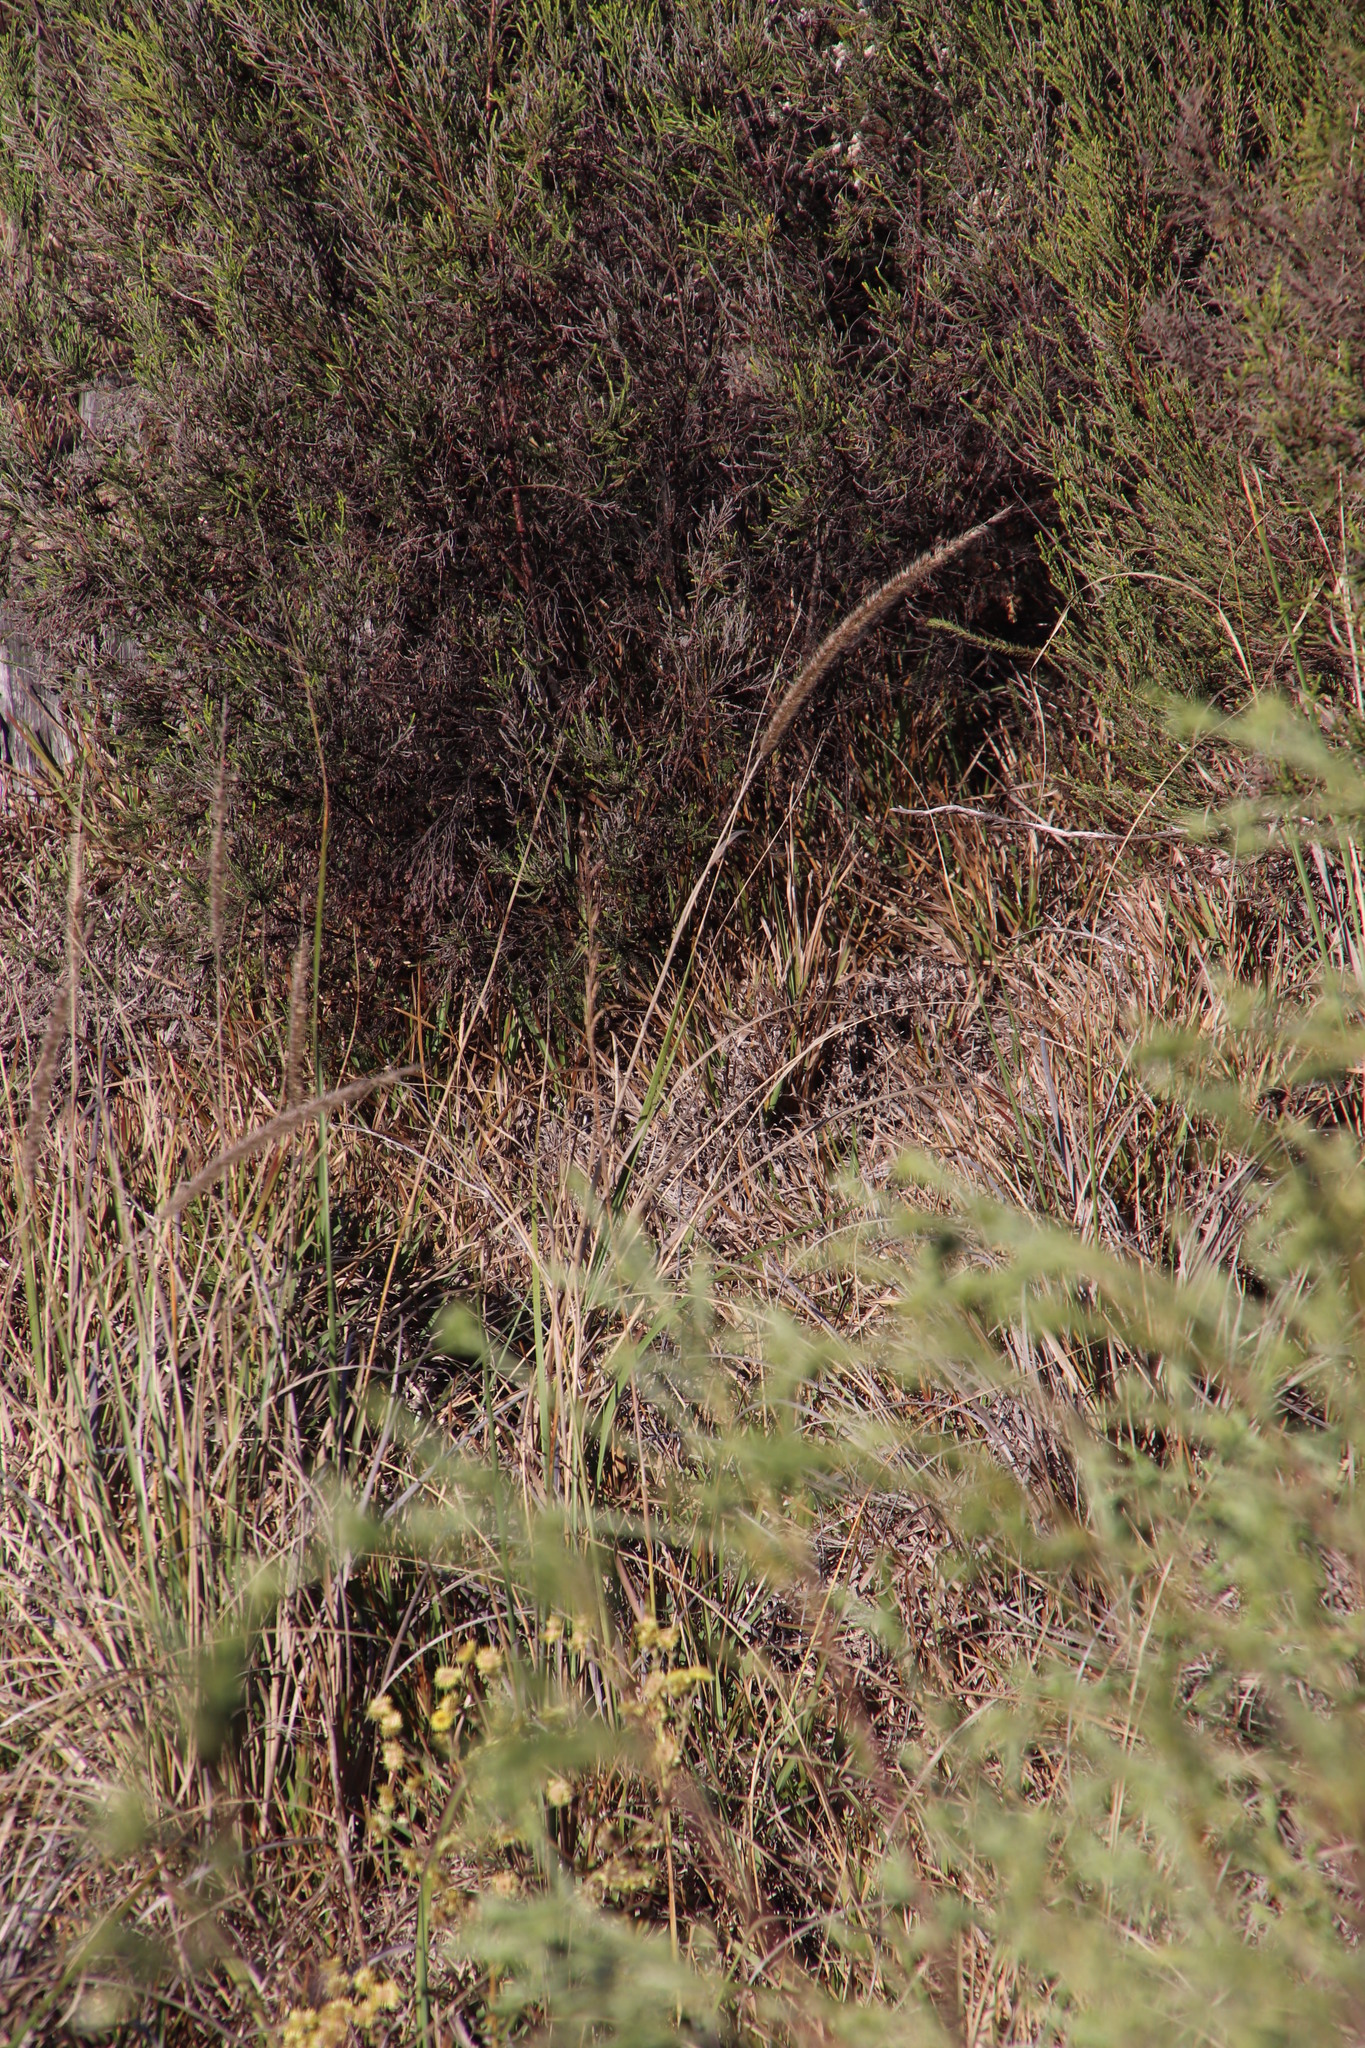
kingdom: Plantae
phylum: Tracheophyta
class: Liliopsida
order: Poales
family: Poaceae
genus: Cenchrus
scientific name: Cenchrus caudatus
